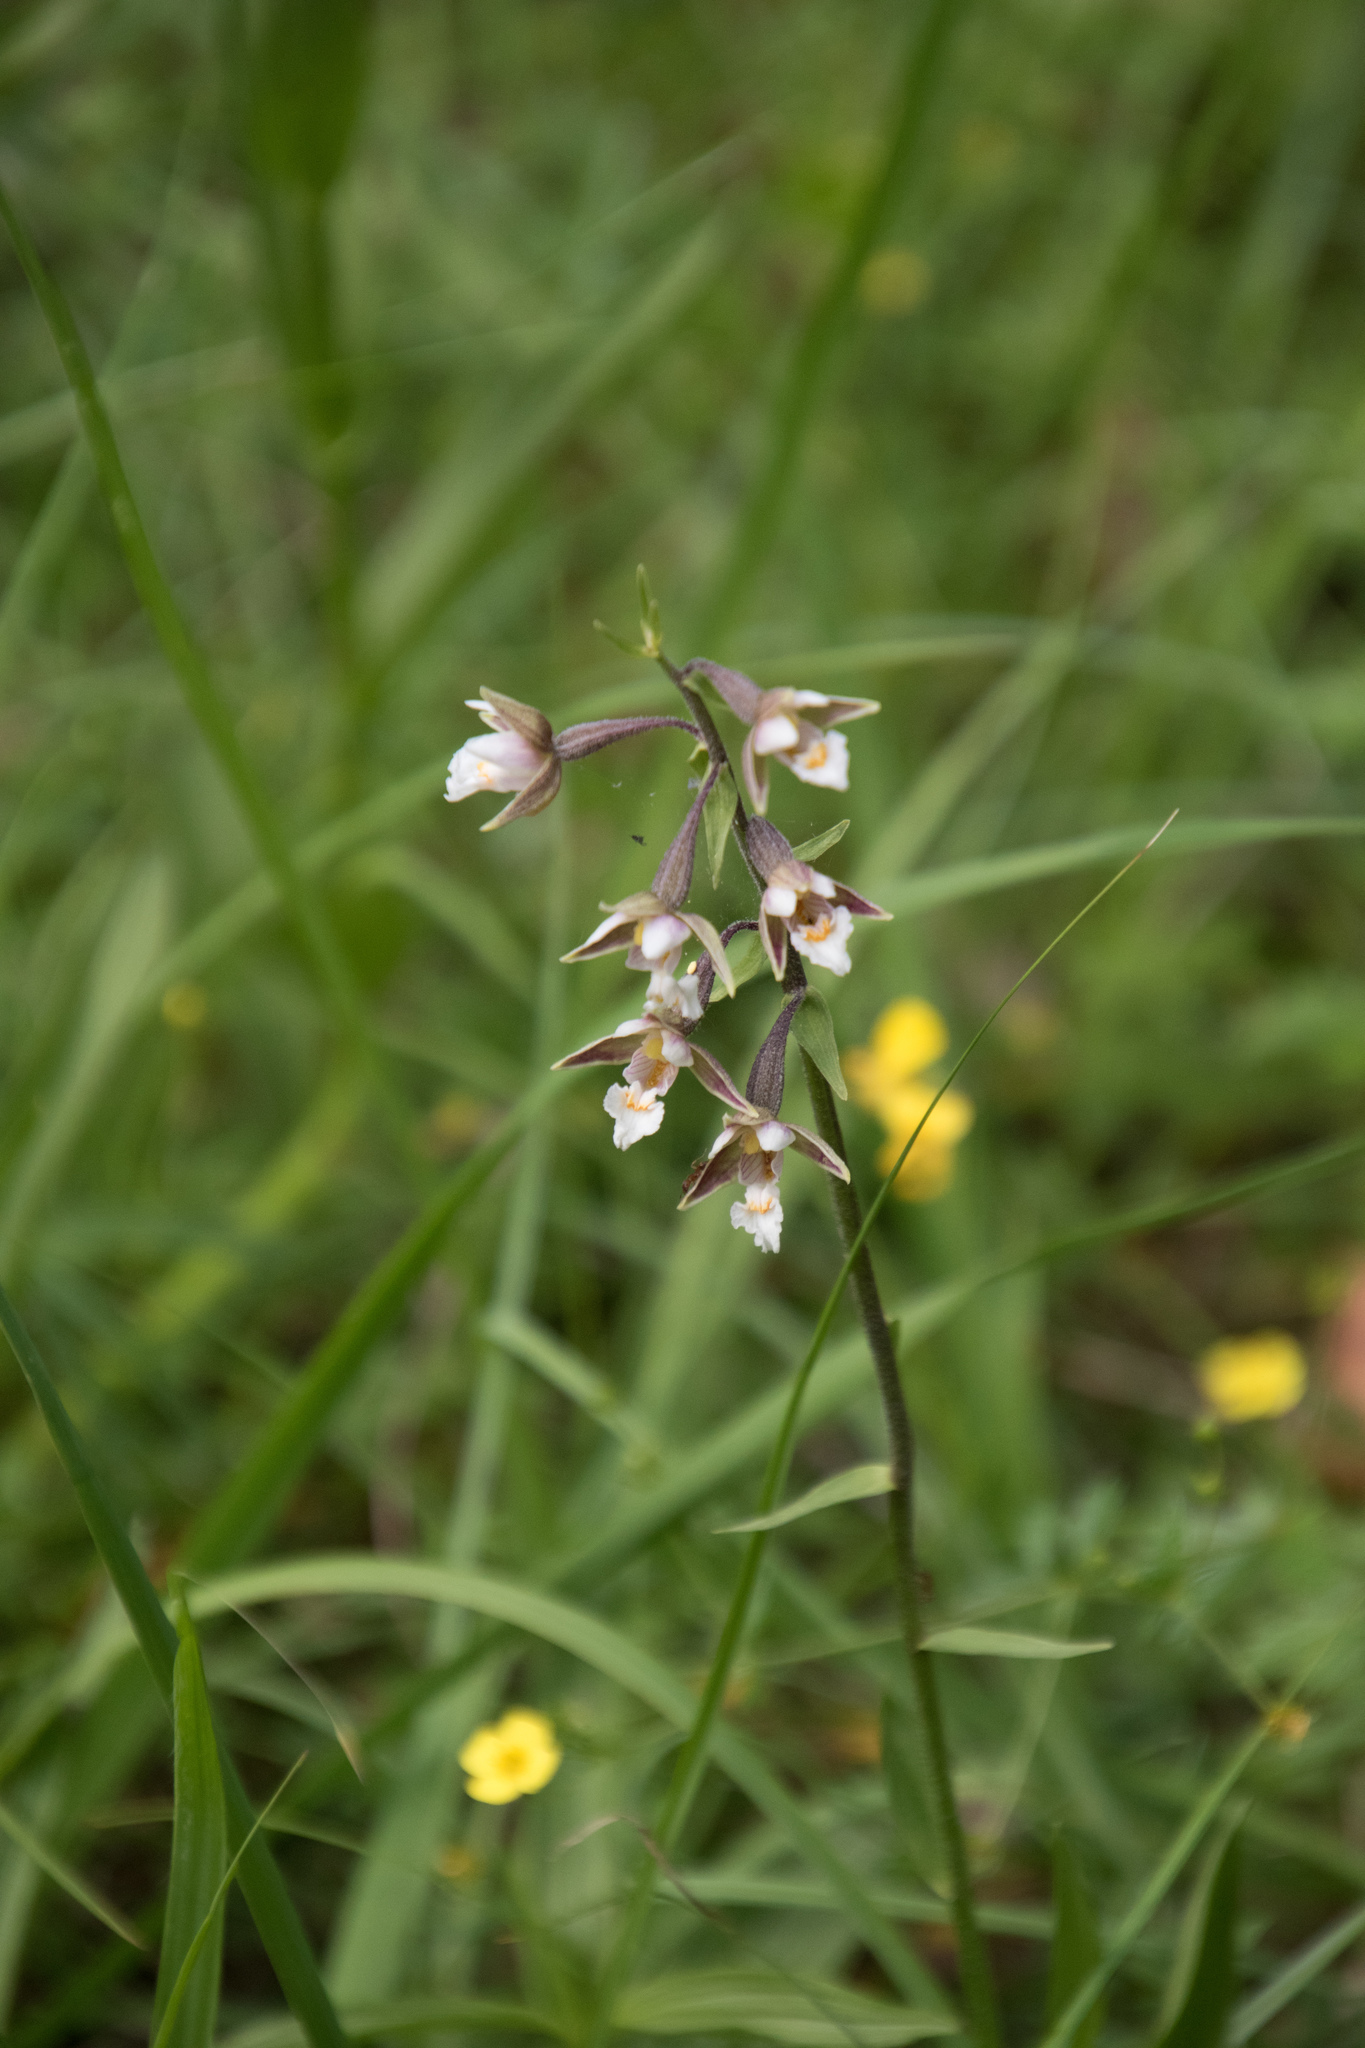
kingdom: Plantae
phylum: Tracheophyta
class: Liliopsida
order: Asparagales
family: Orchidaceae
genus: Epipactis
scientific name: Epipactis palustris
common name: Marsh helleborine
